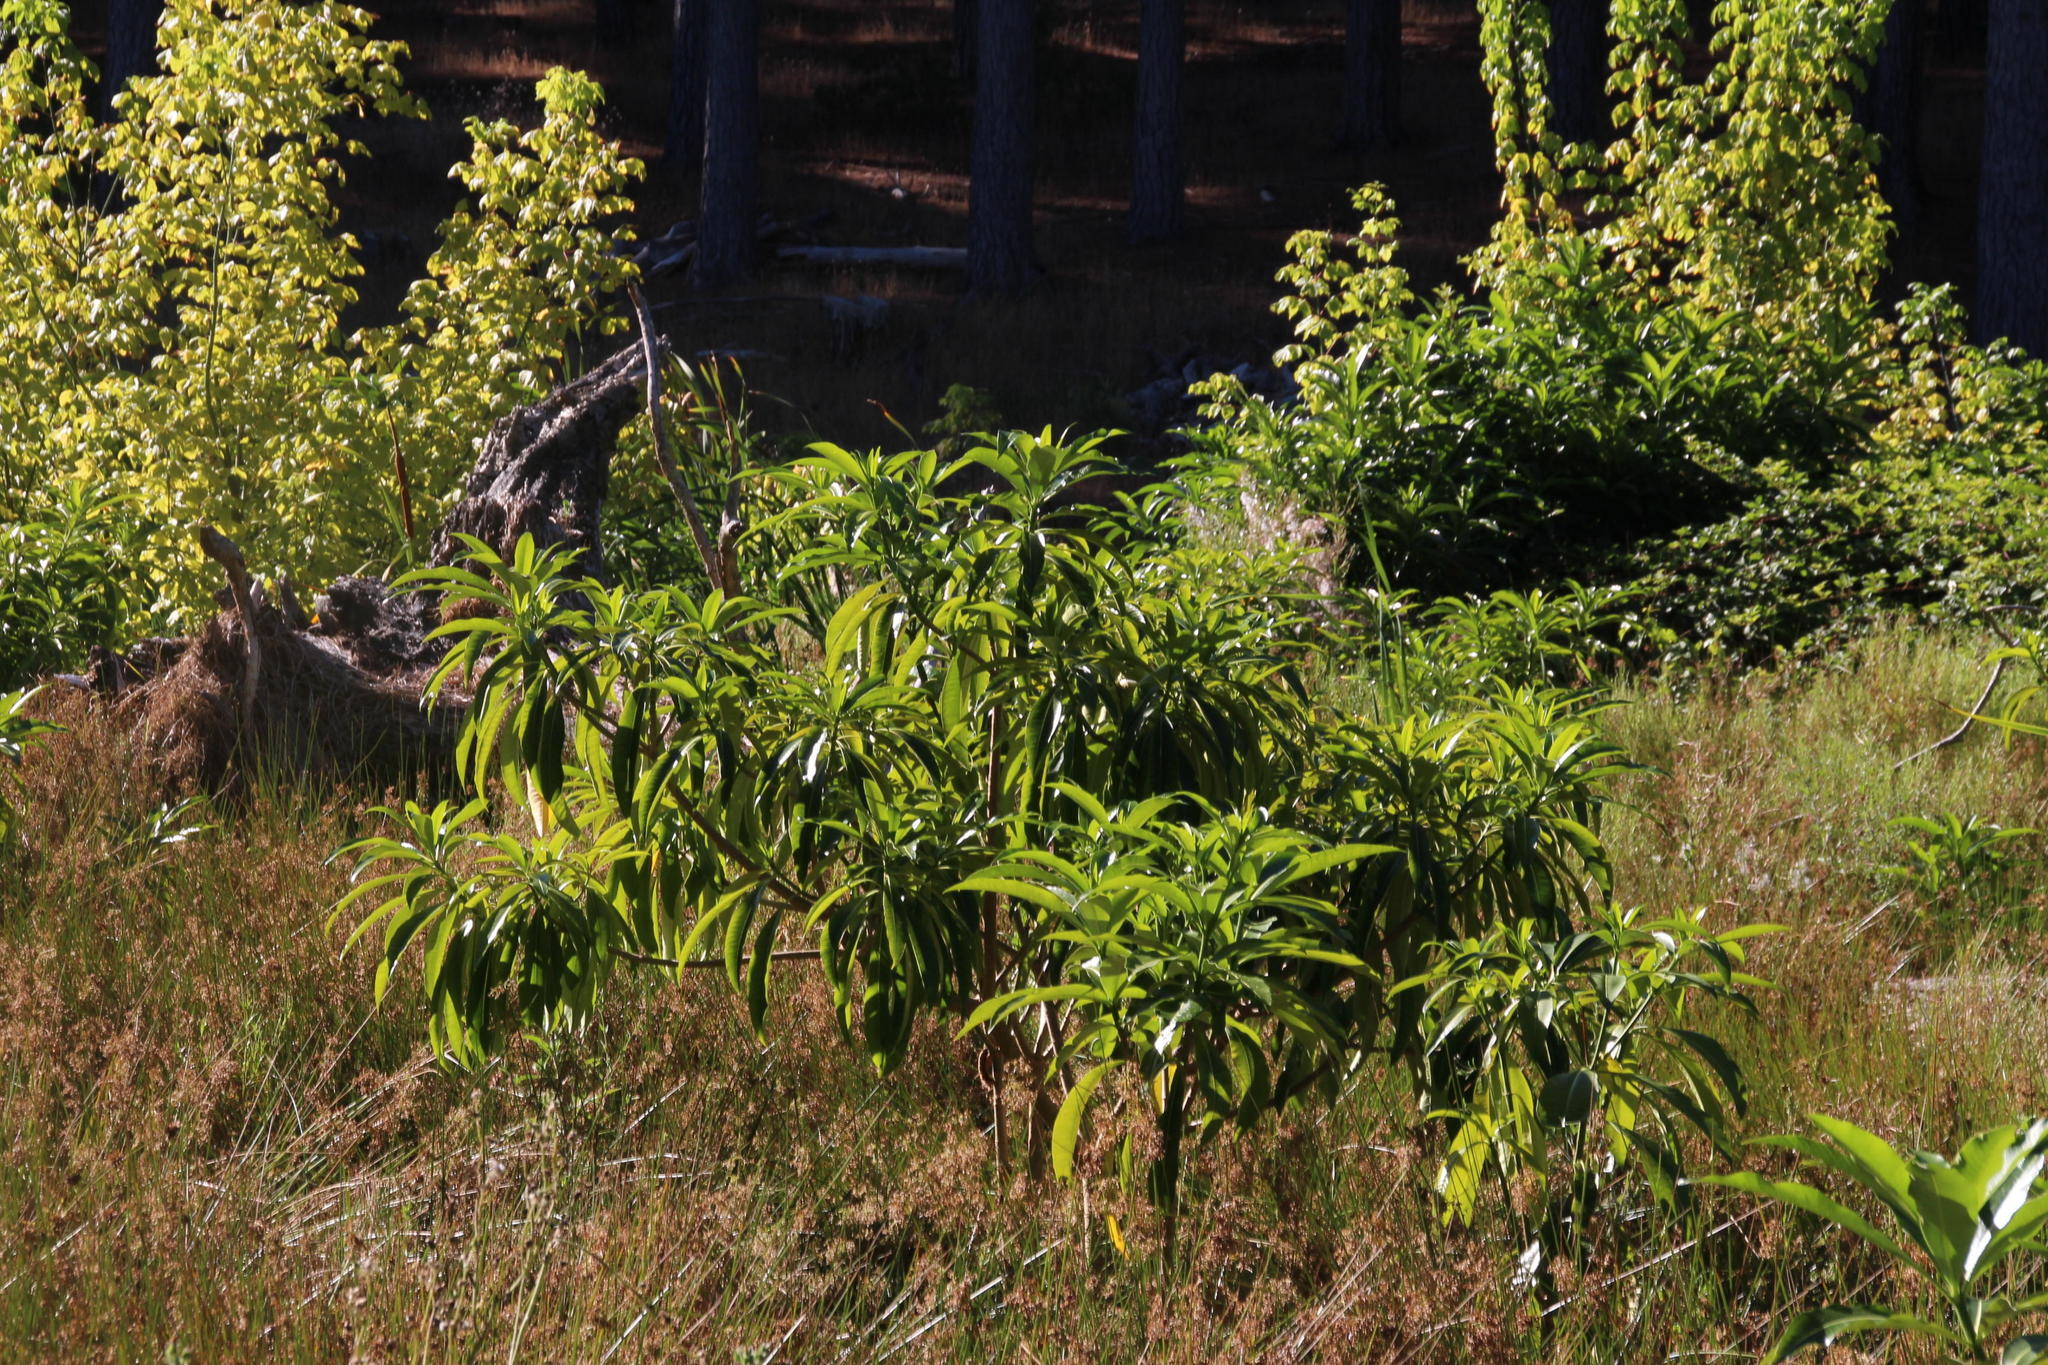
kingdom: Plantae
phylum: Tracheophyta
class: Magnoliopsida
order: Gentianales
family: Apocynaceae
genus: Rauvolfia
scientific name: Rauvolfia caffra
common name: Quininetree
